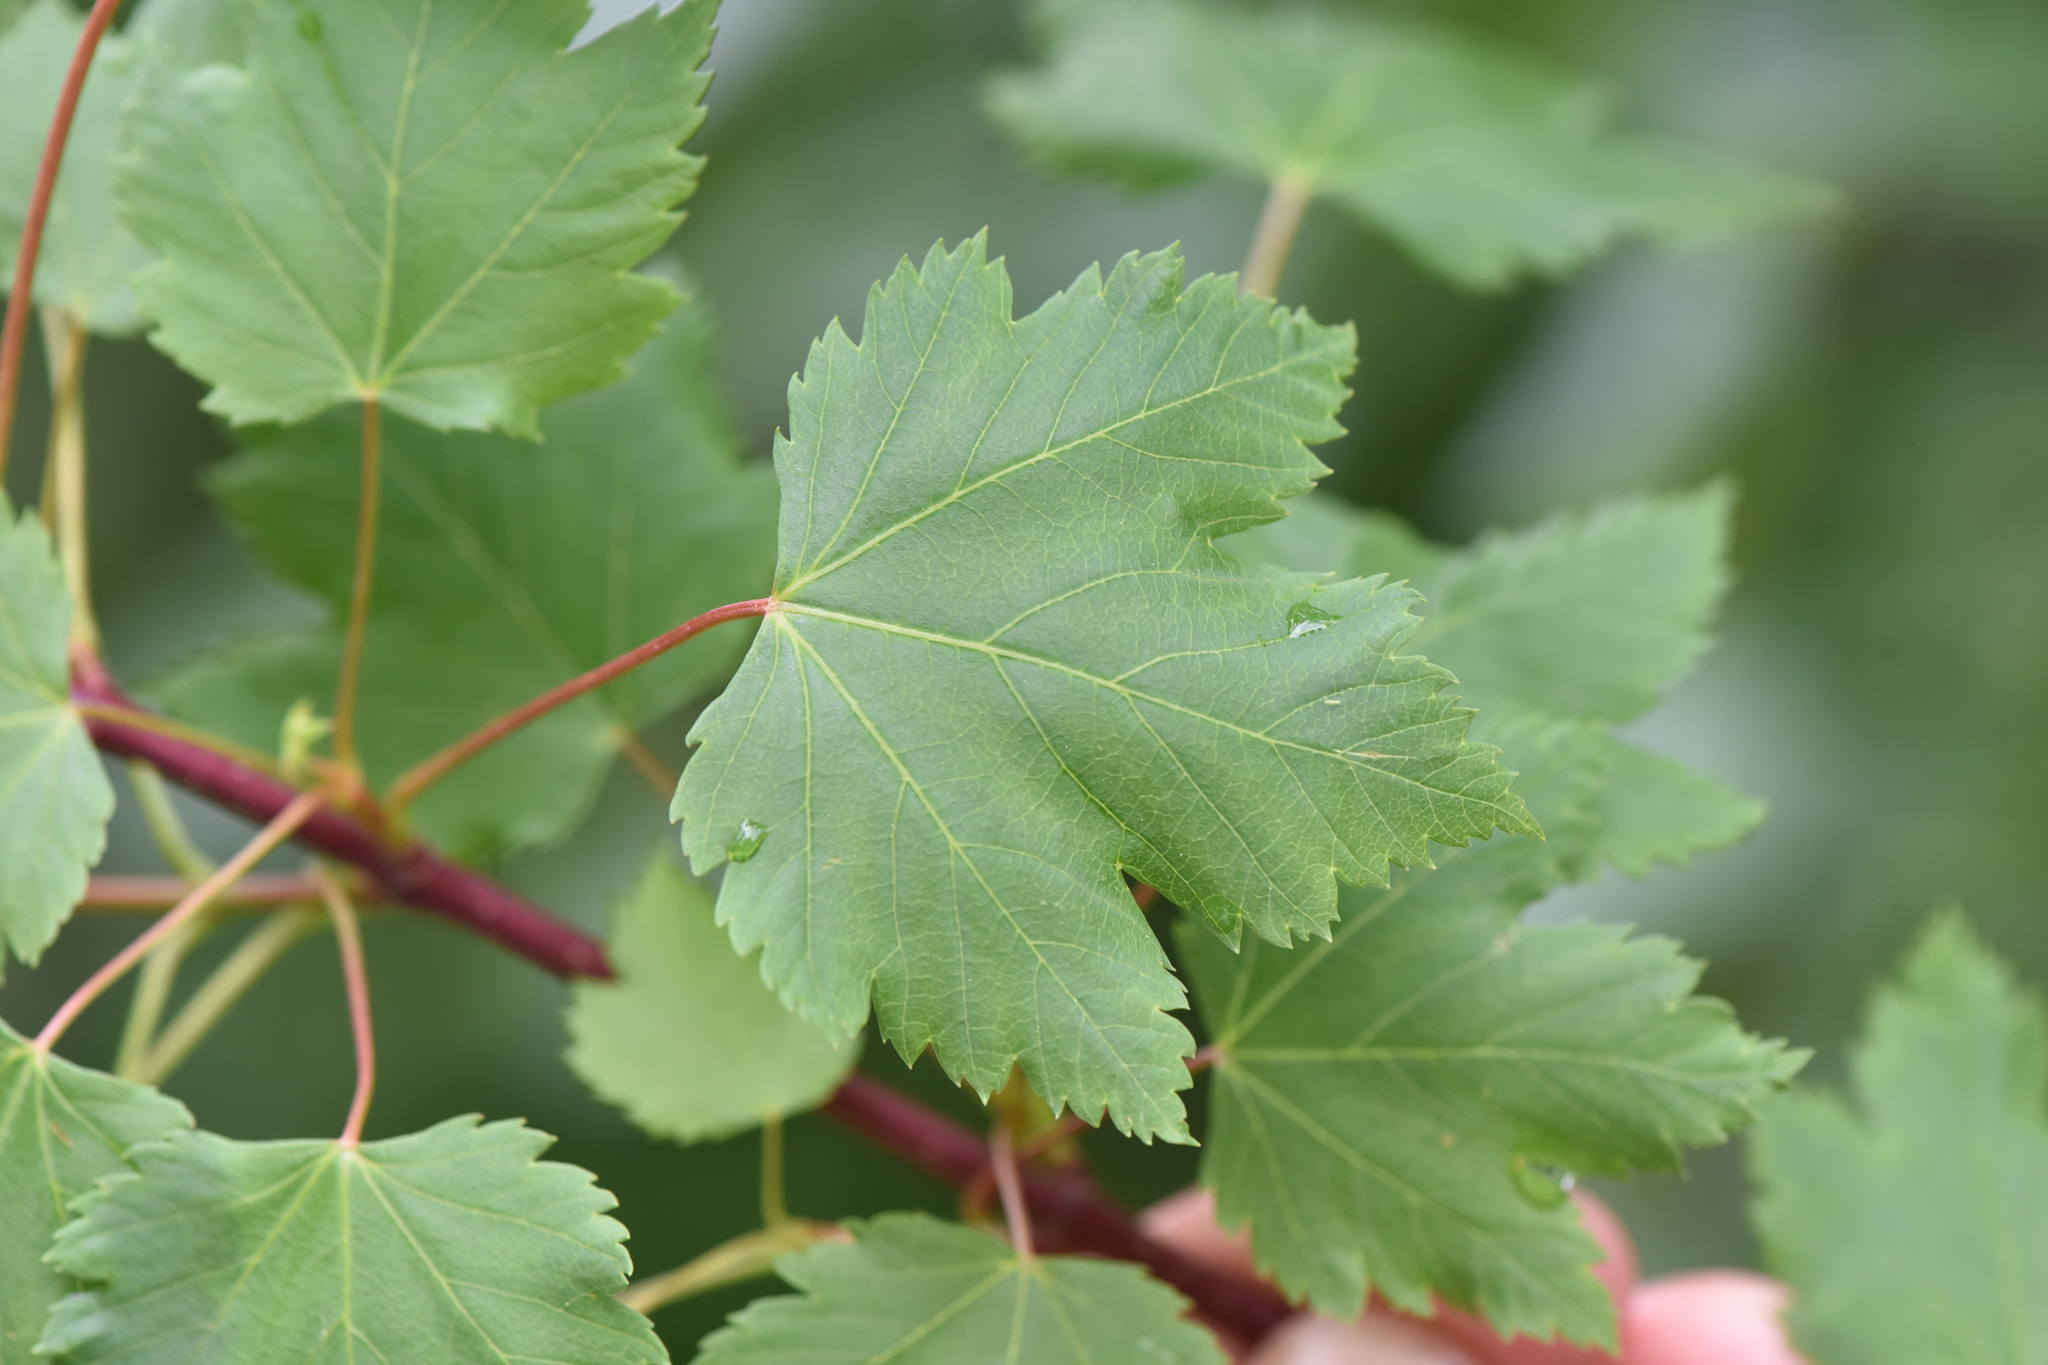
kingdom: Plantae
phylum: Tracheophyta
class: Magnoliopsida
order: Sapindales
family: Sapindaceae
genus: Acer
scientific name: Acer glabrum
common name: Rocky mountain maple
